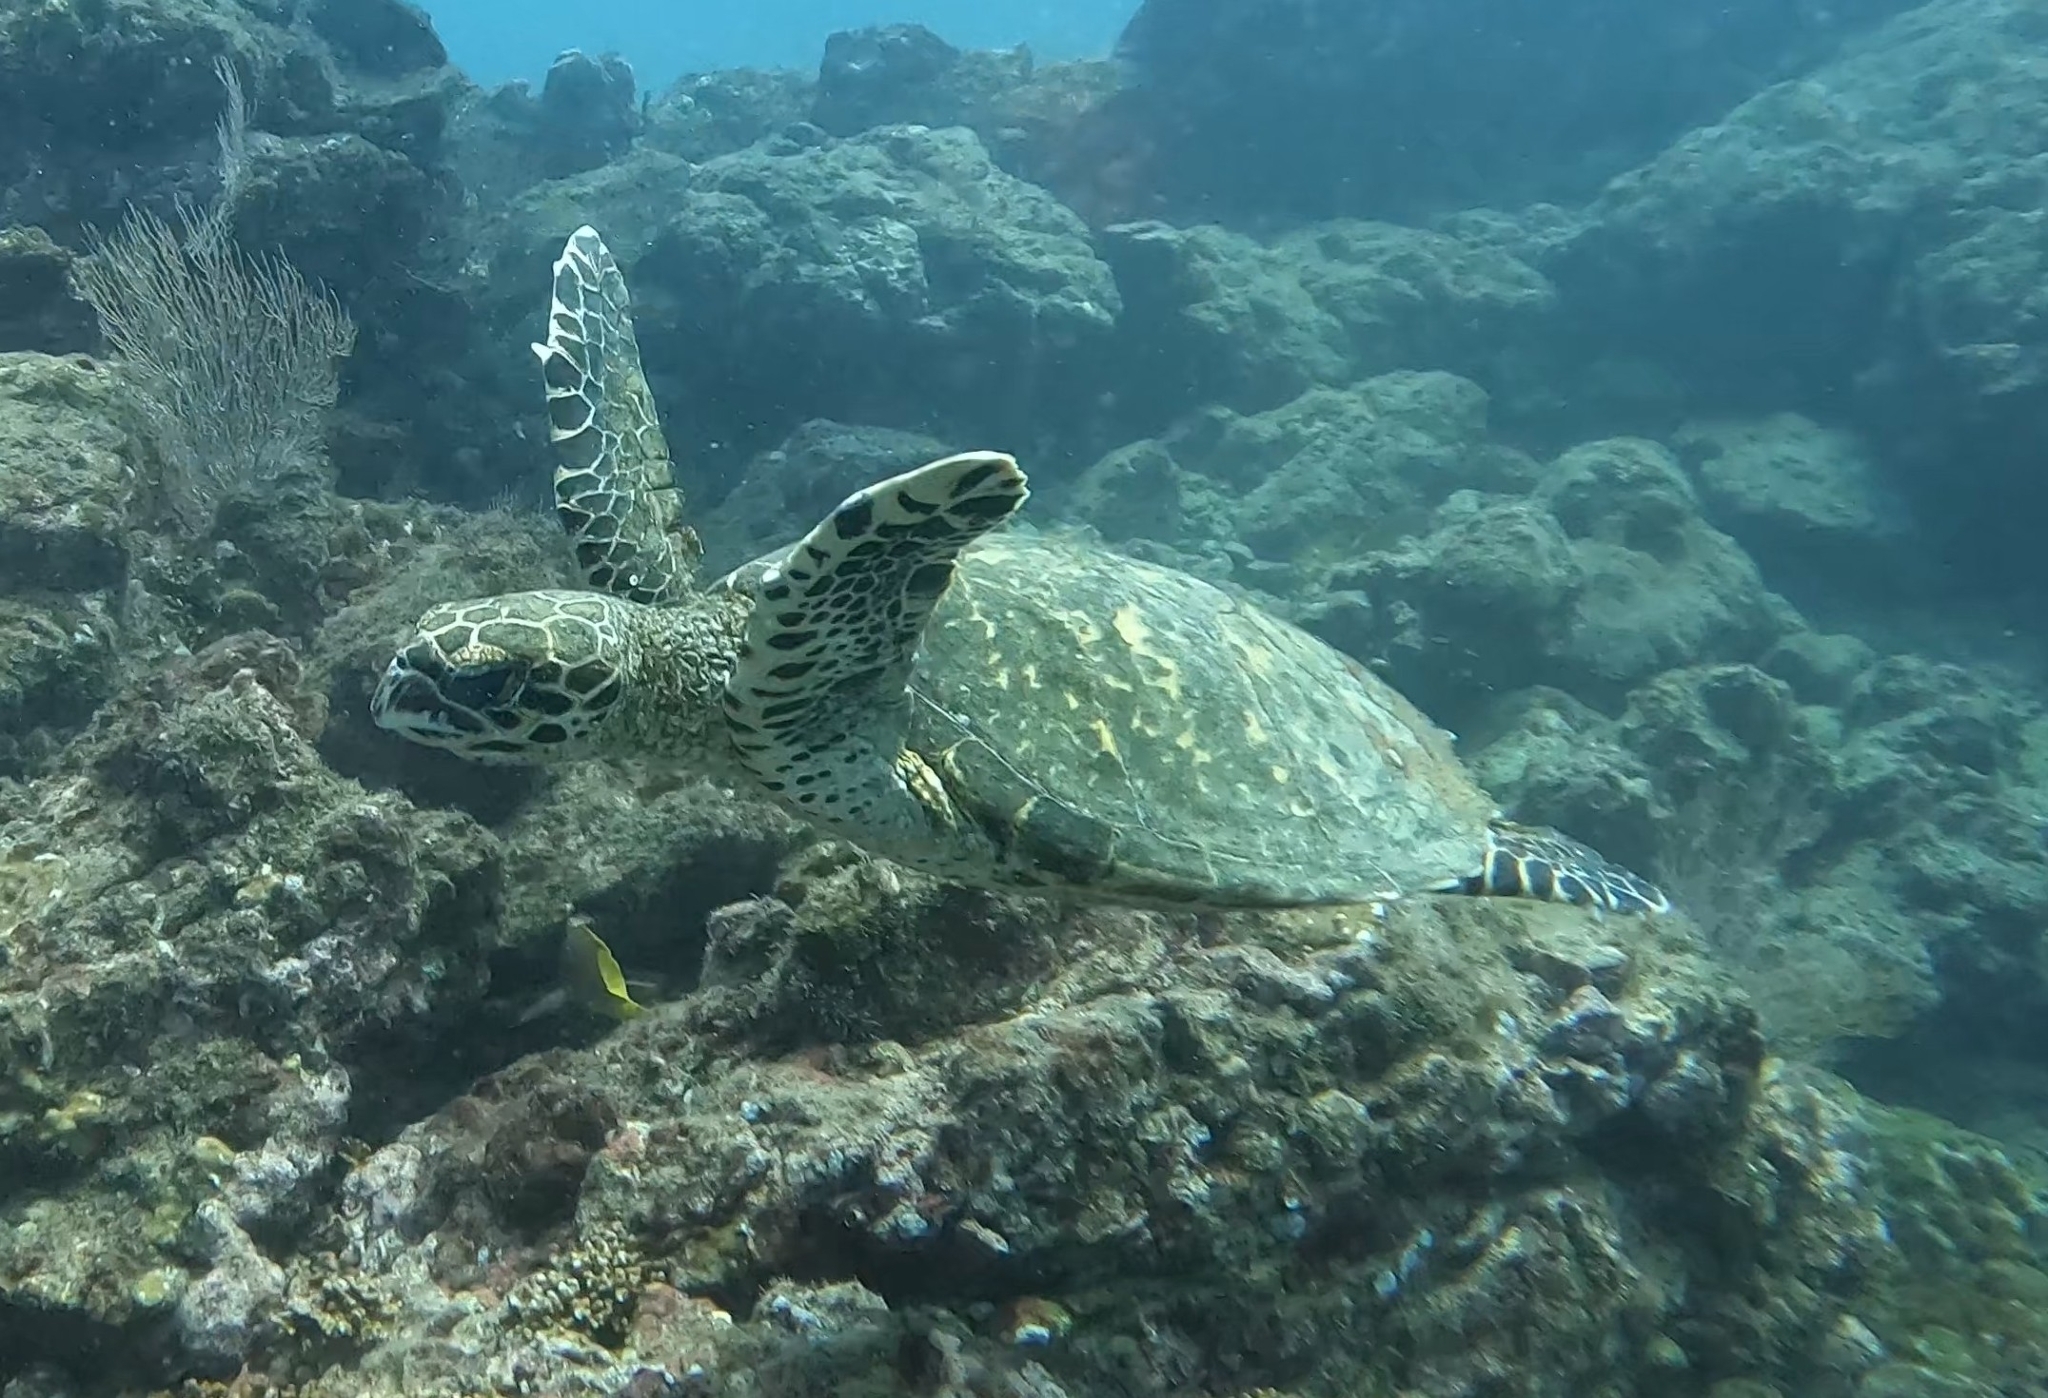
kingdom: Animalia
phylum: Chordata
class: Testudines
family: Cheloniidae
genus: Eretmochelys
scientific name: Eretmochelys imbricata
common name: Hawksbill turtle
